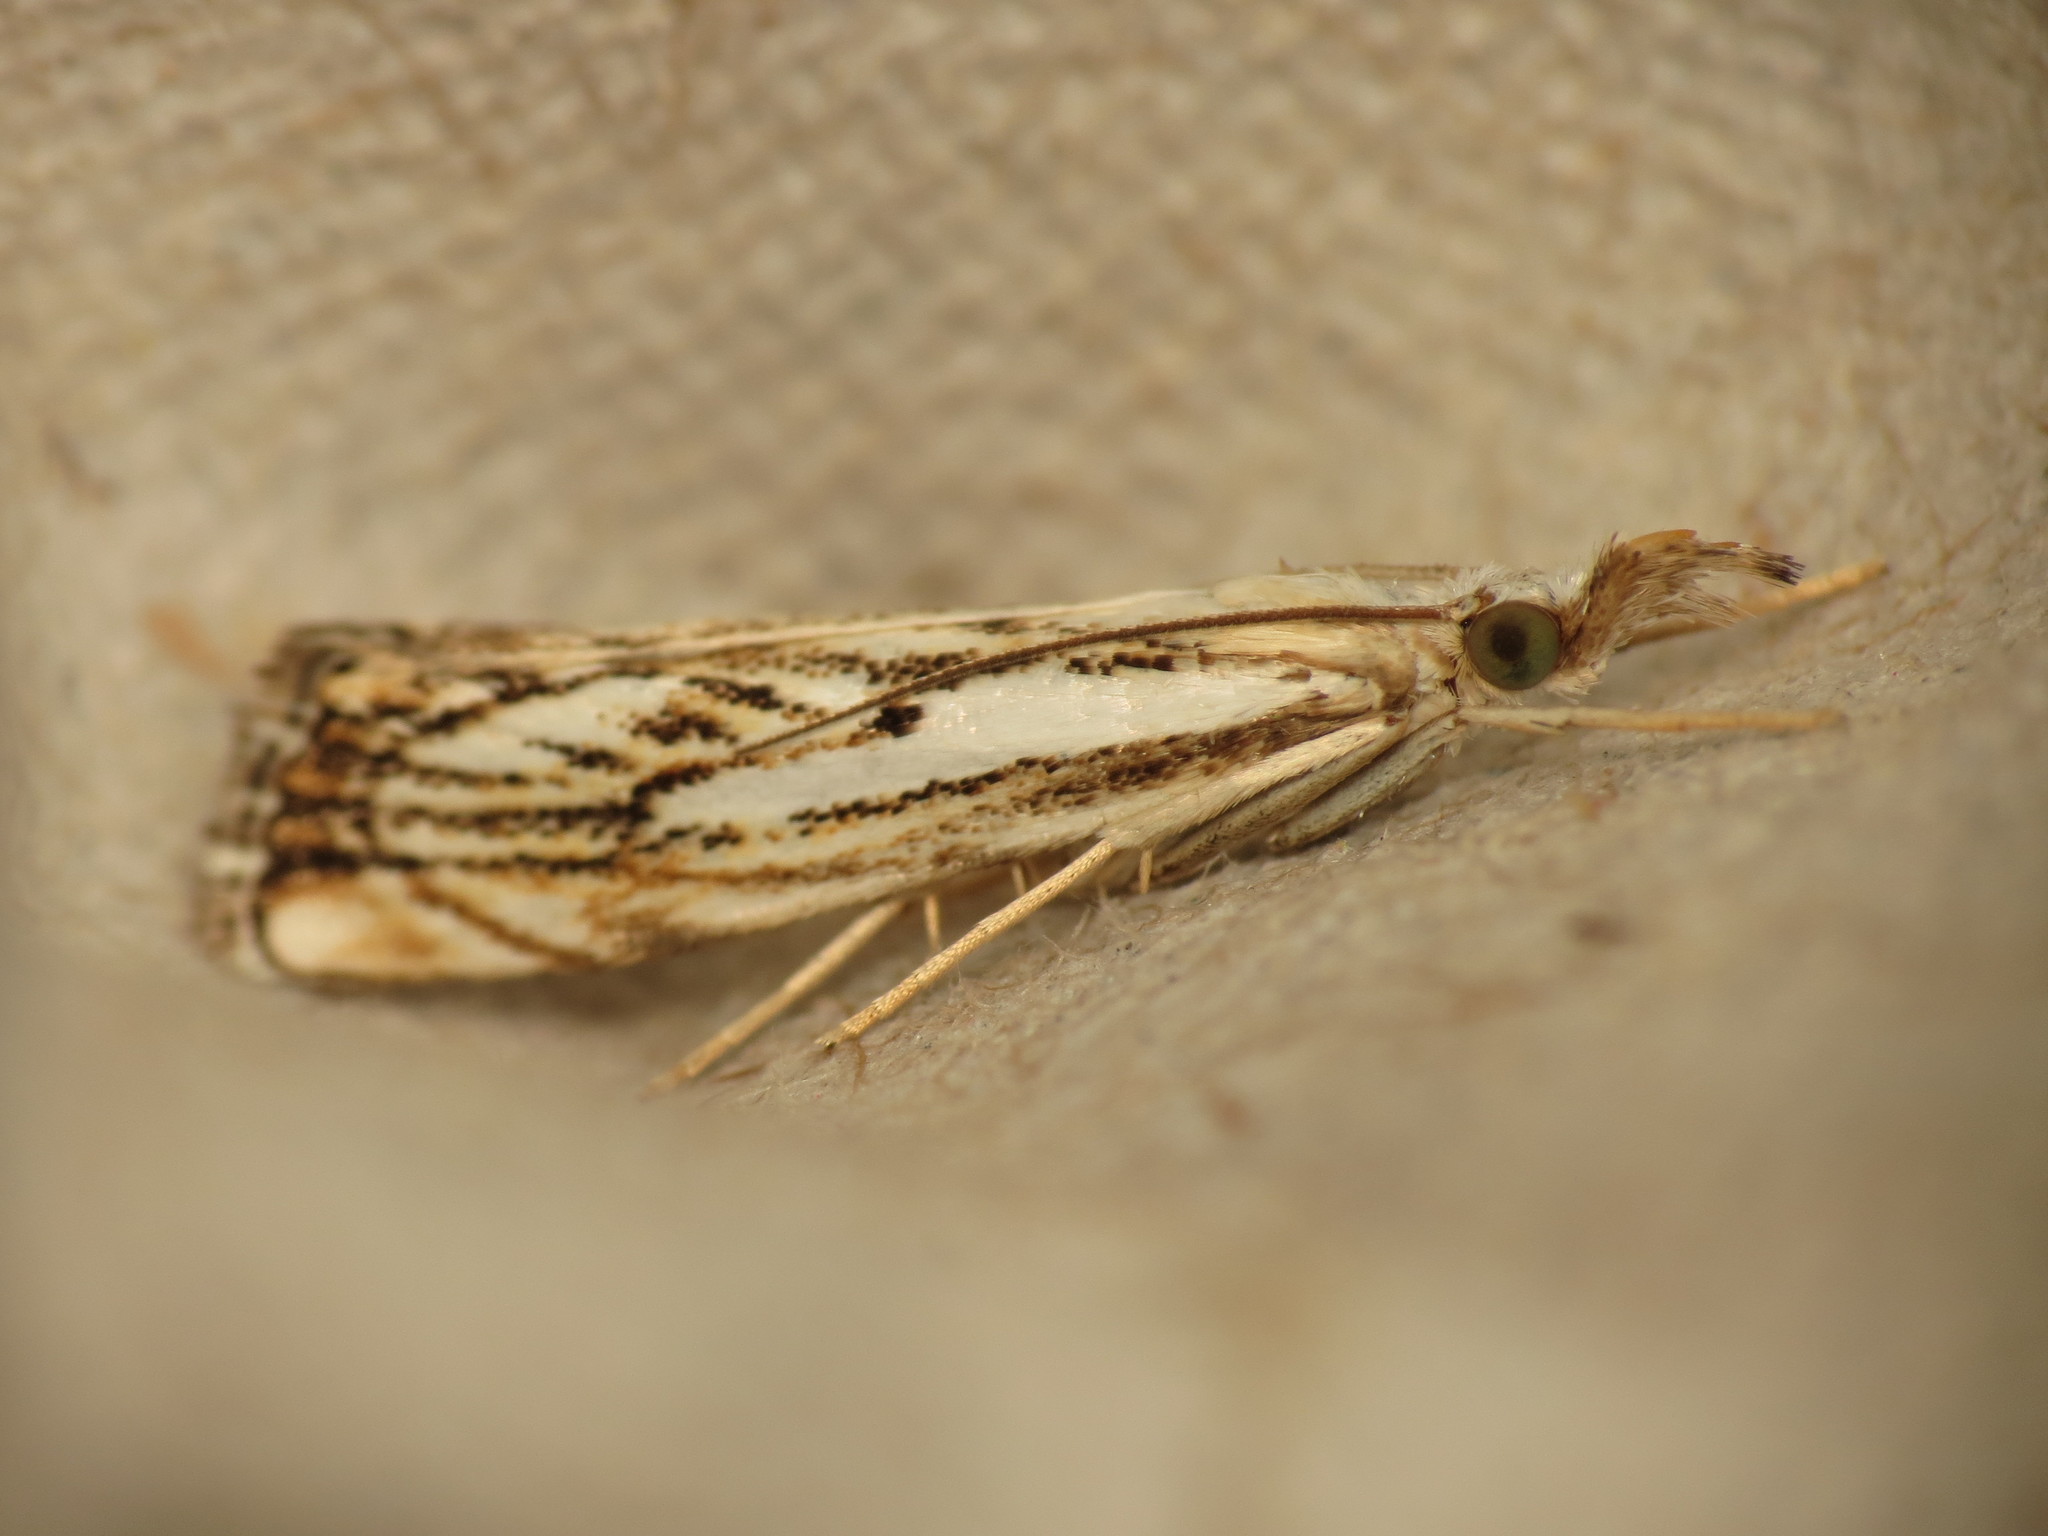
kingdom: Animalia
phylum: Arthropoda
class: Insecta
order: Lepidoptera
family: Crambidae
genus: Catoptria
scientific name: Catoptria falsella
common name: Chequered grass-veneer
